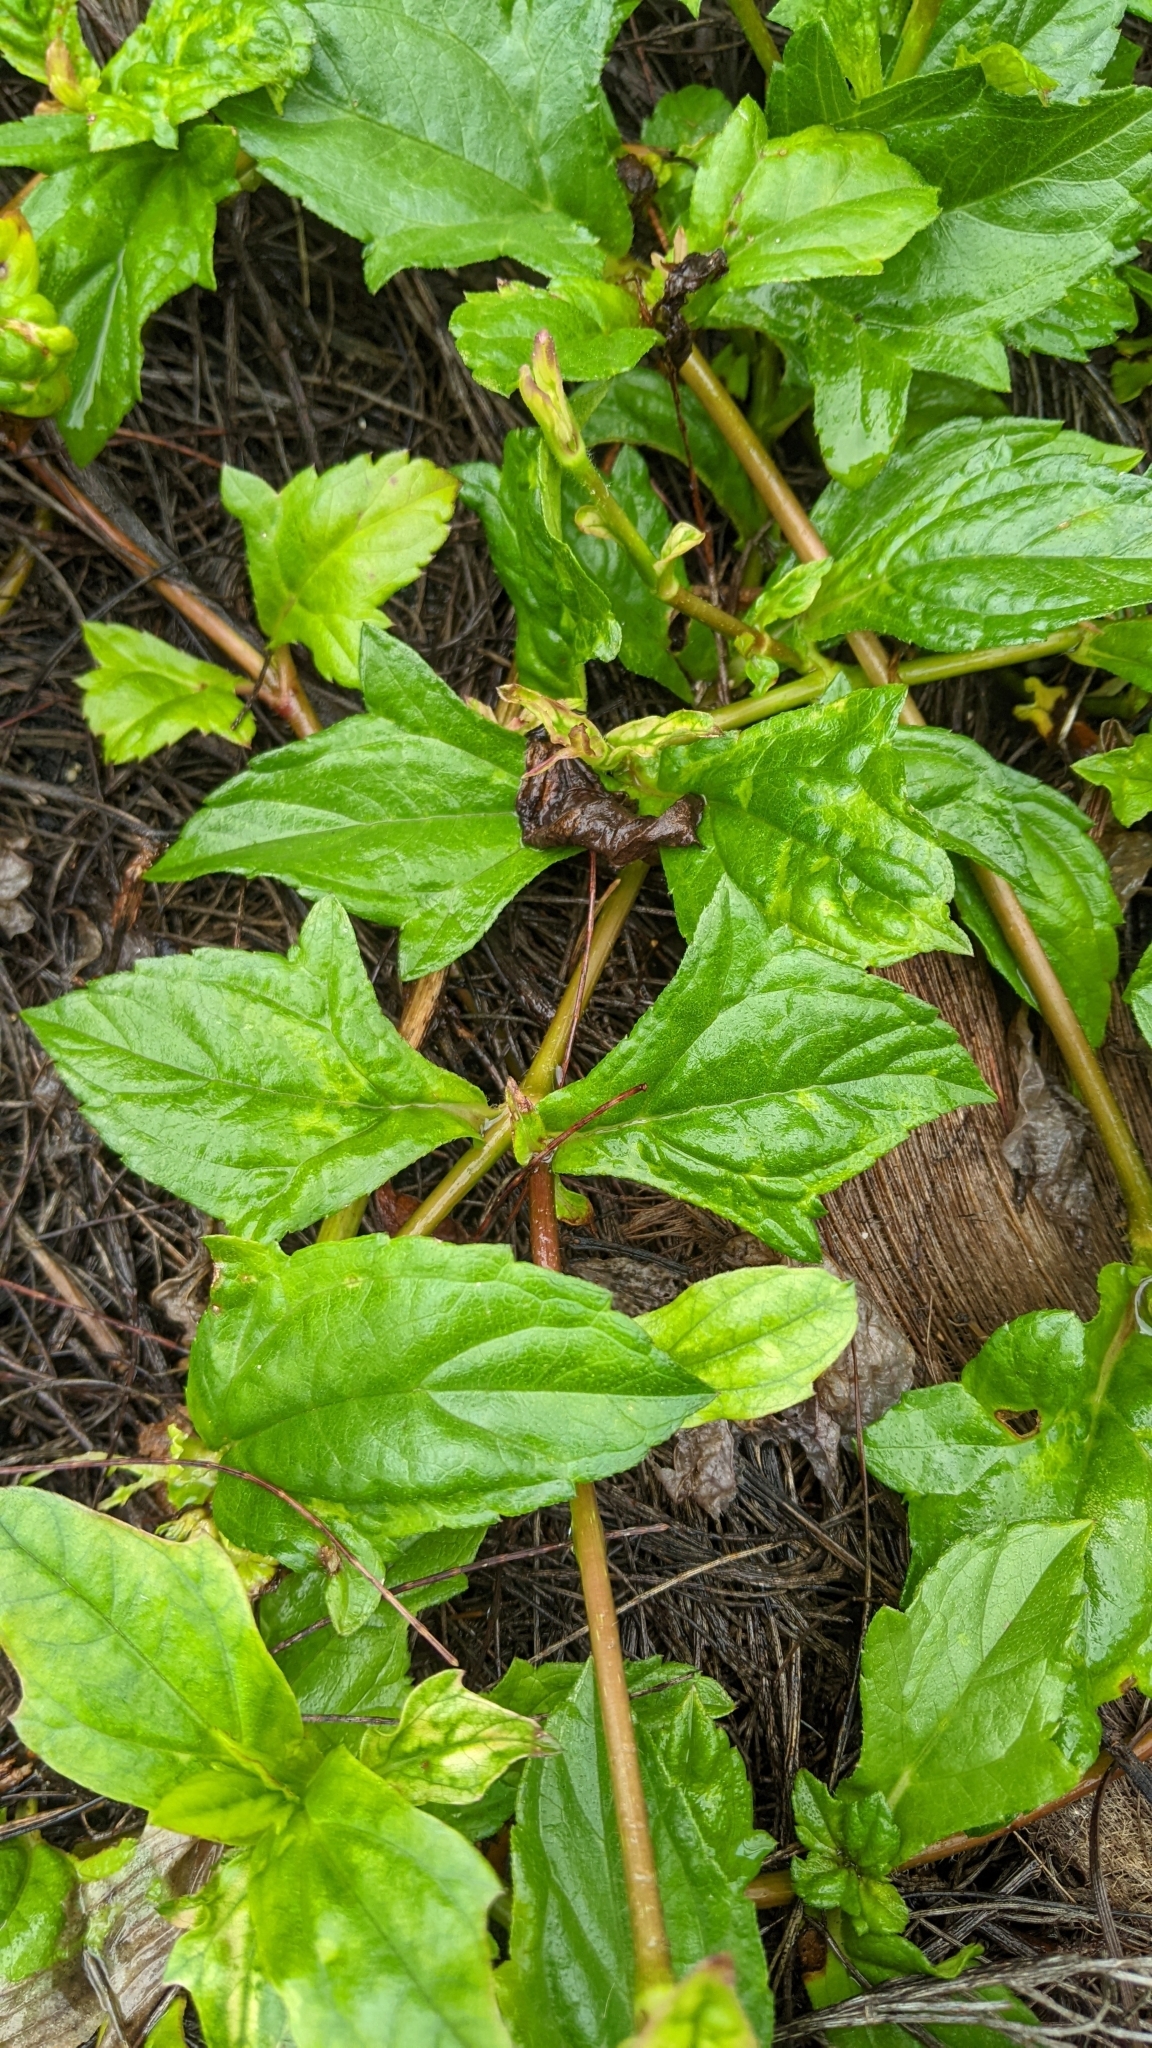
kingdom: Plantae
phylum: Tracheophyta
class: Magnoliopsida
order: Asterales
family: Asteraceae
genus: Sphagneticola
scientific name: Sphagneticola trilobata
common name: Bay biscayne creeping-oxeye
